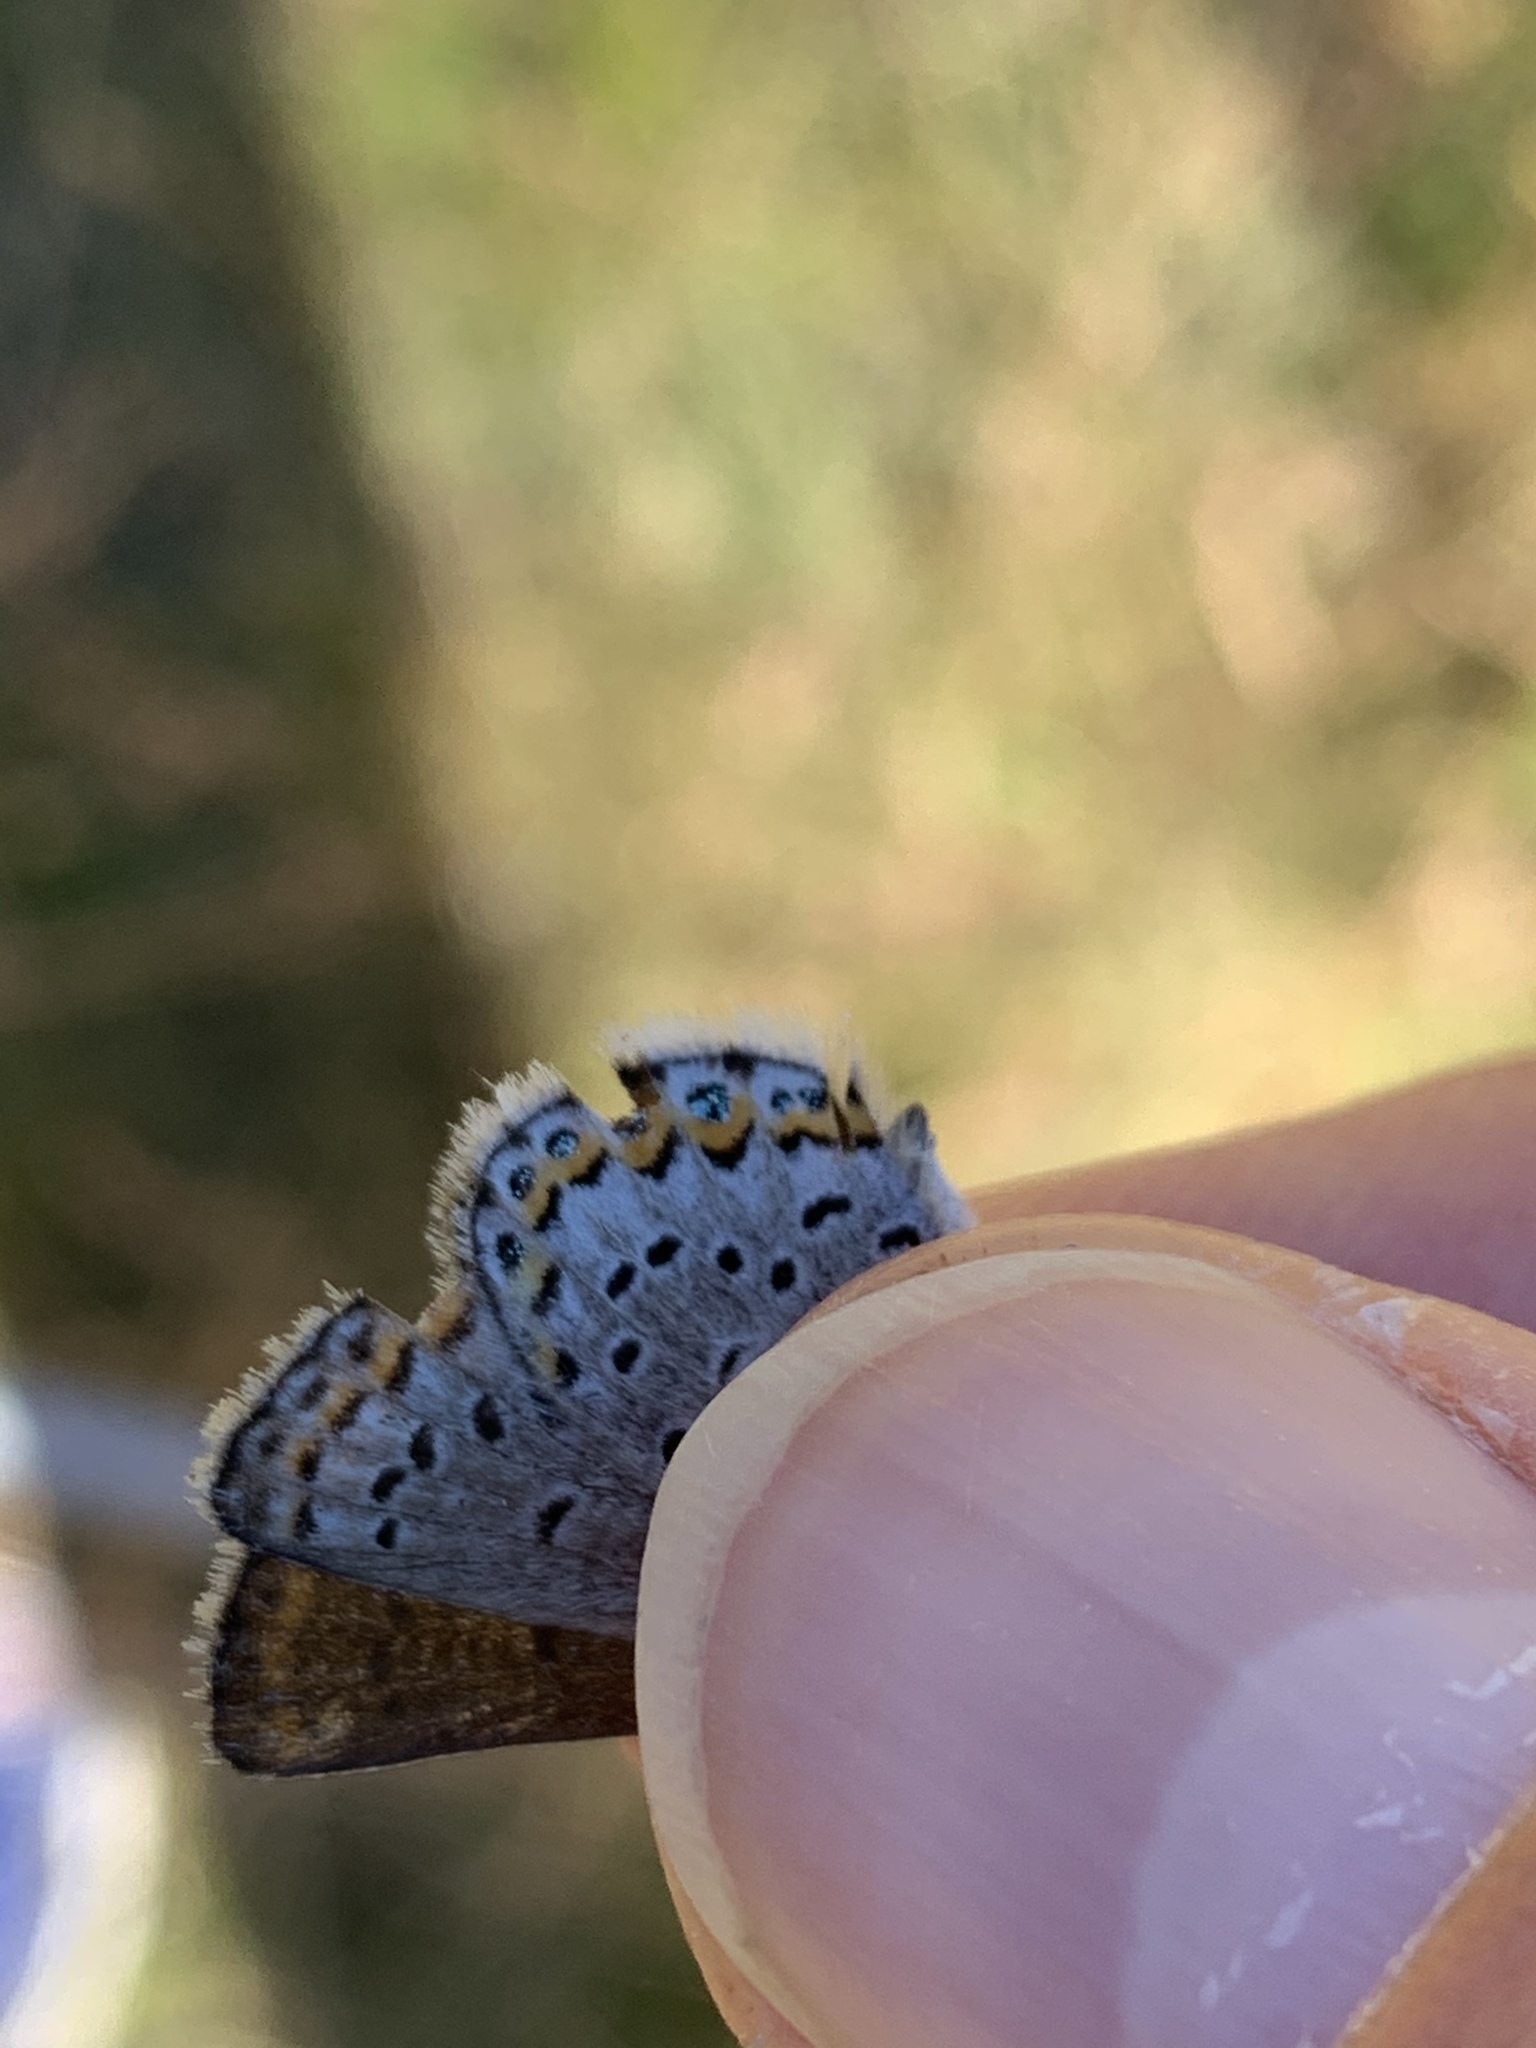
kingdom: Animalia
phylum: Arthropoda
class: Insecta
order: Lepidoptera
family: Lycaenidae
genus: Lycaeides
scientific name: Lycaeides idas
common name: Northern blue
